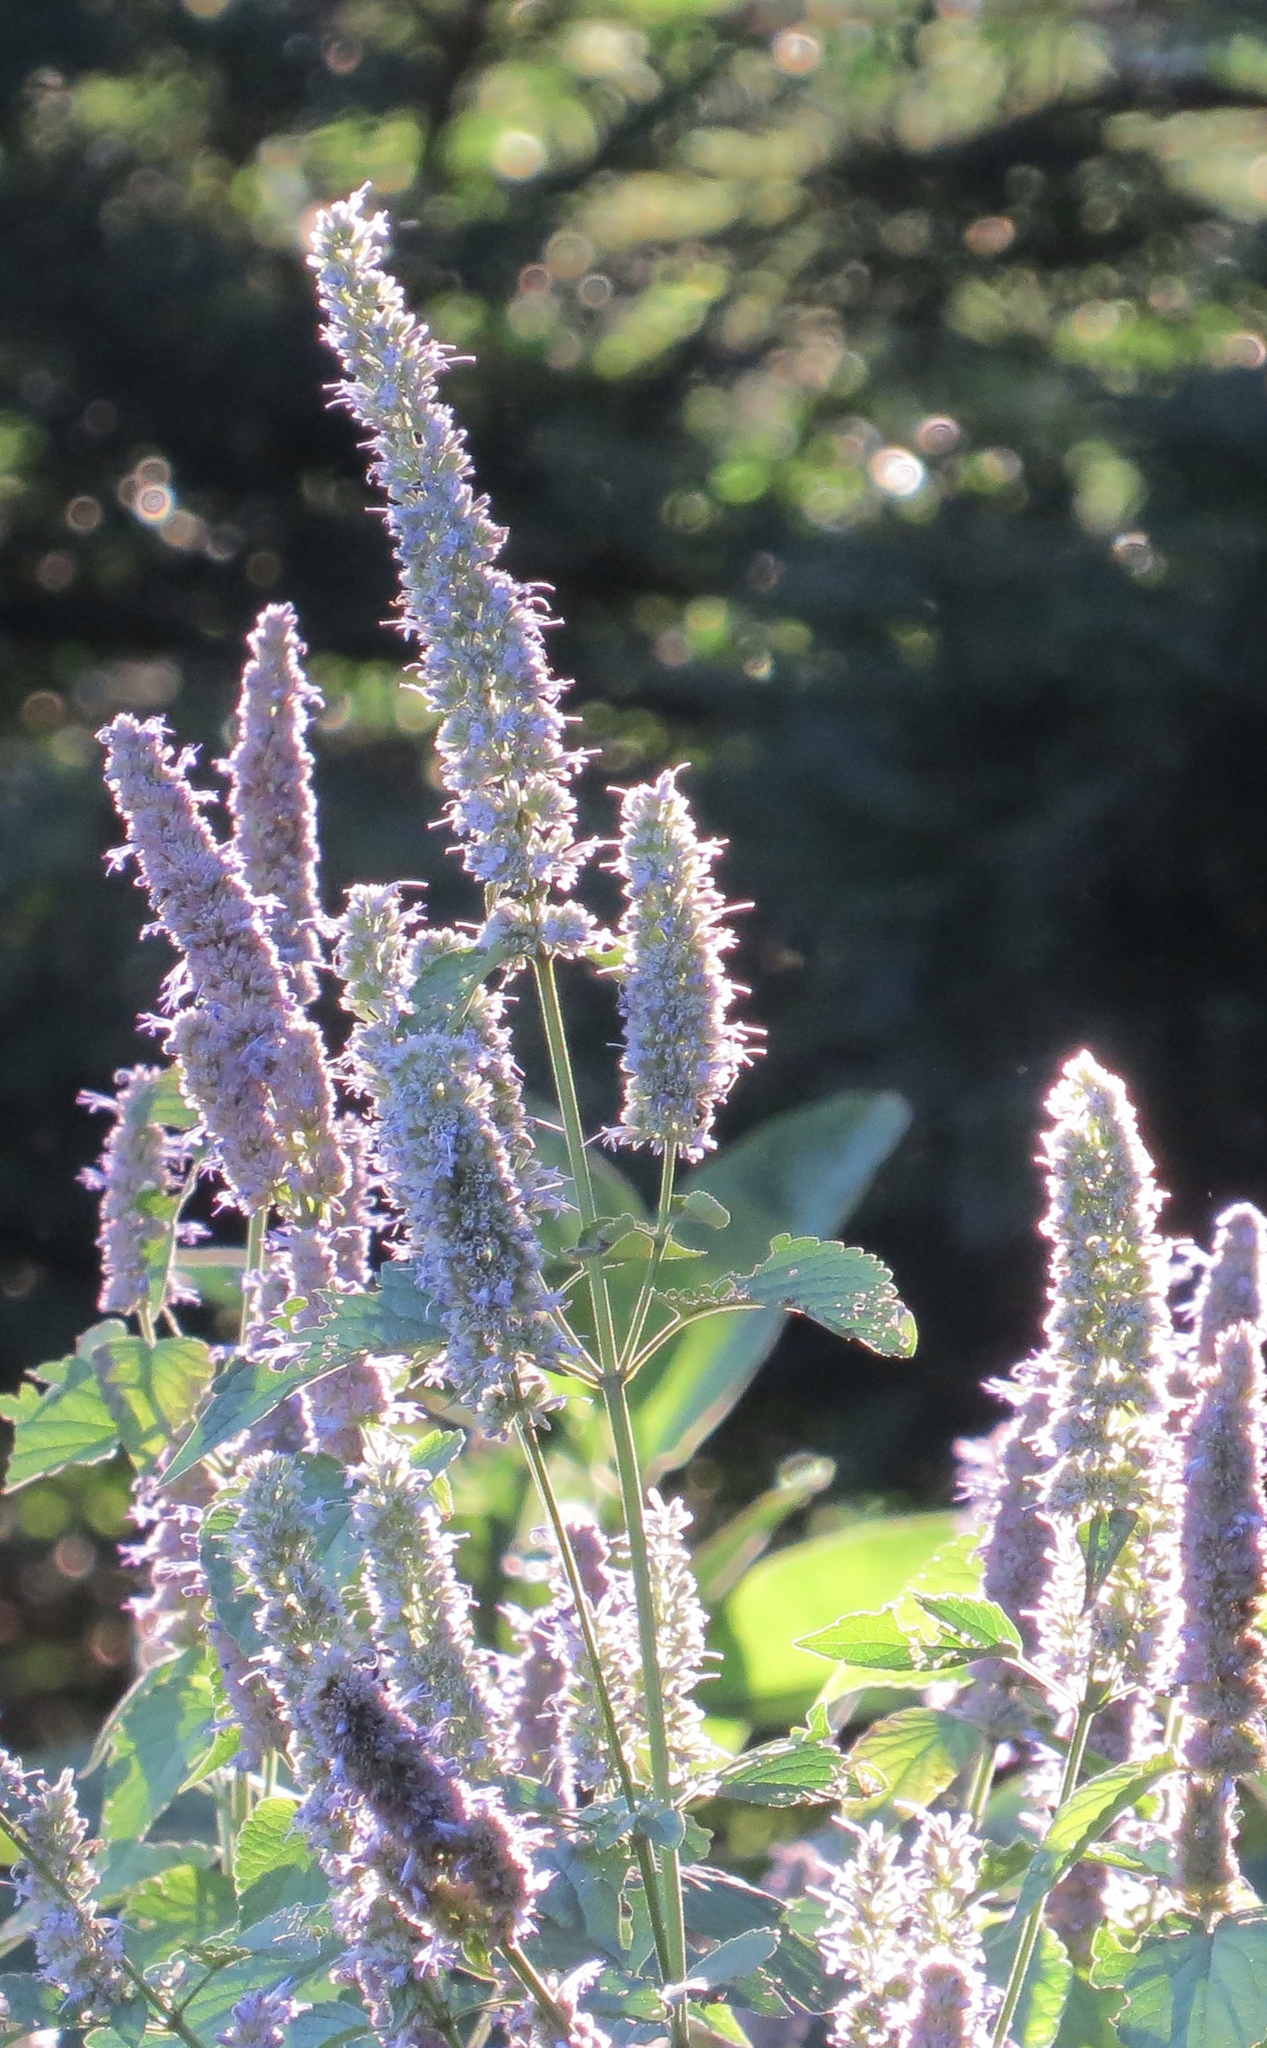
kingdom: Plantae
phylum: Tracheophyta
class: Magnoliopsida
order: Lamiales
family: Lamiaceae
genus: Agastache
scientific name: Agastache foeniculum
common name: Anise hyssop
